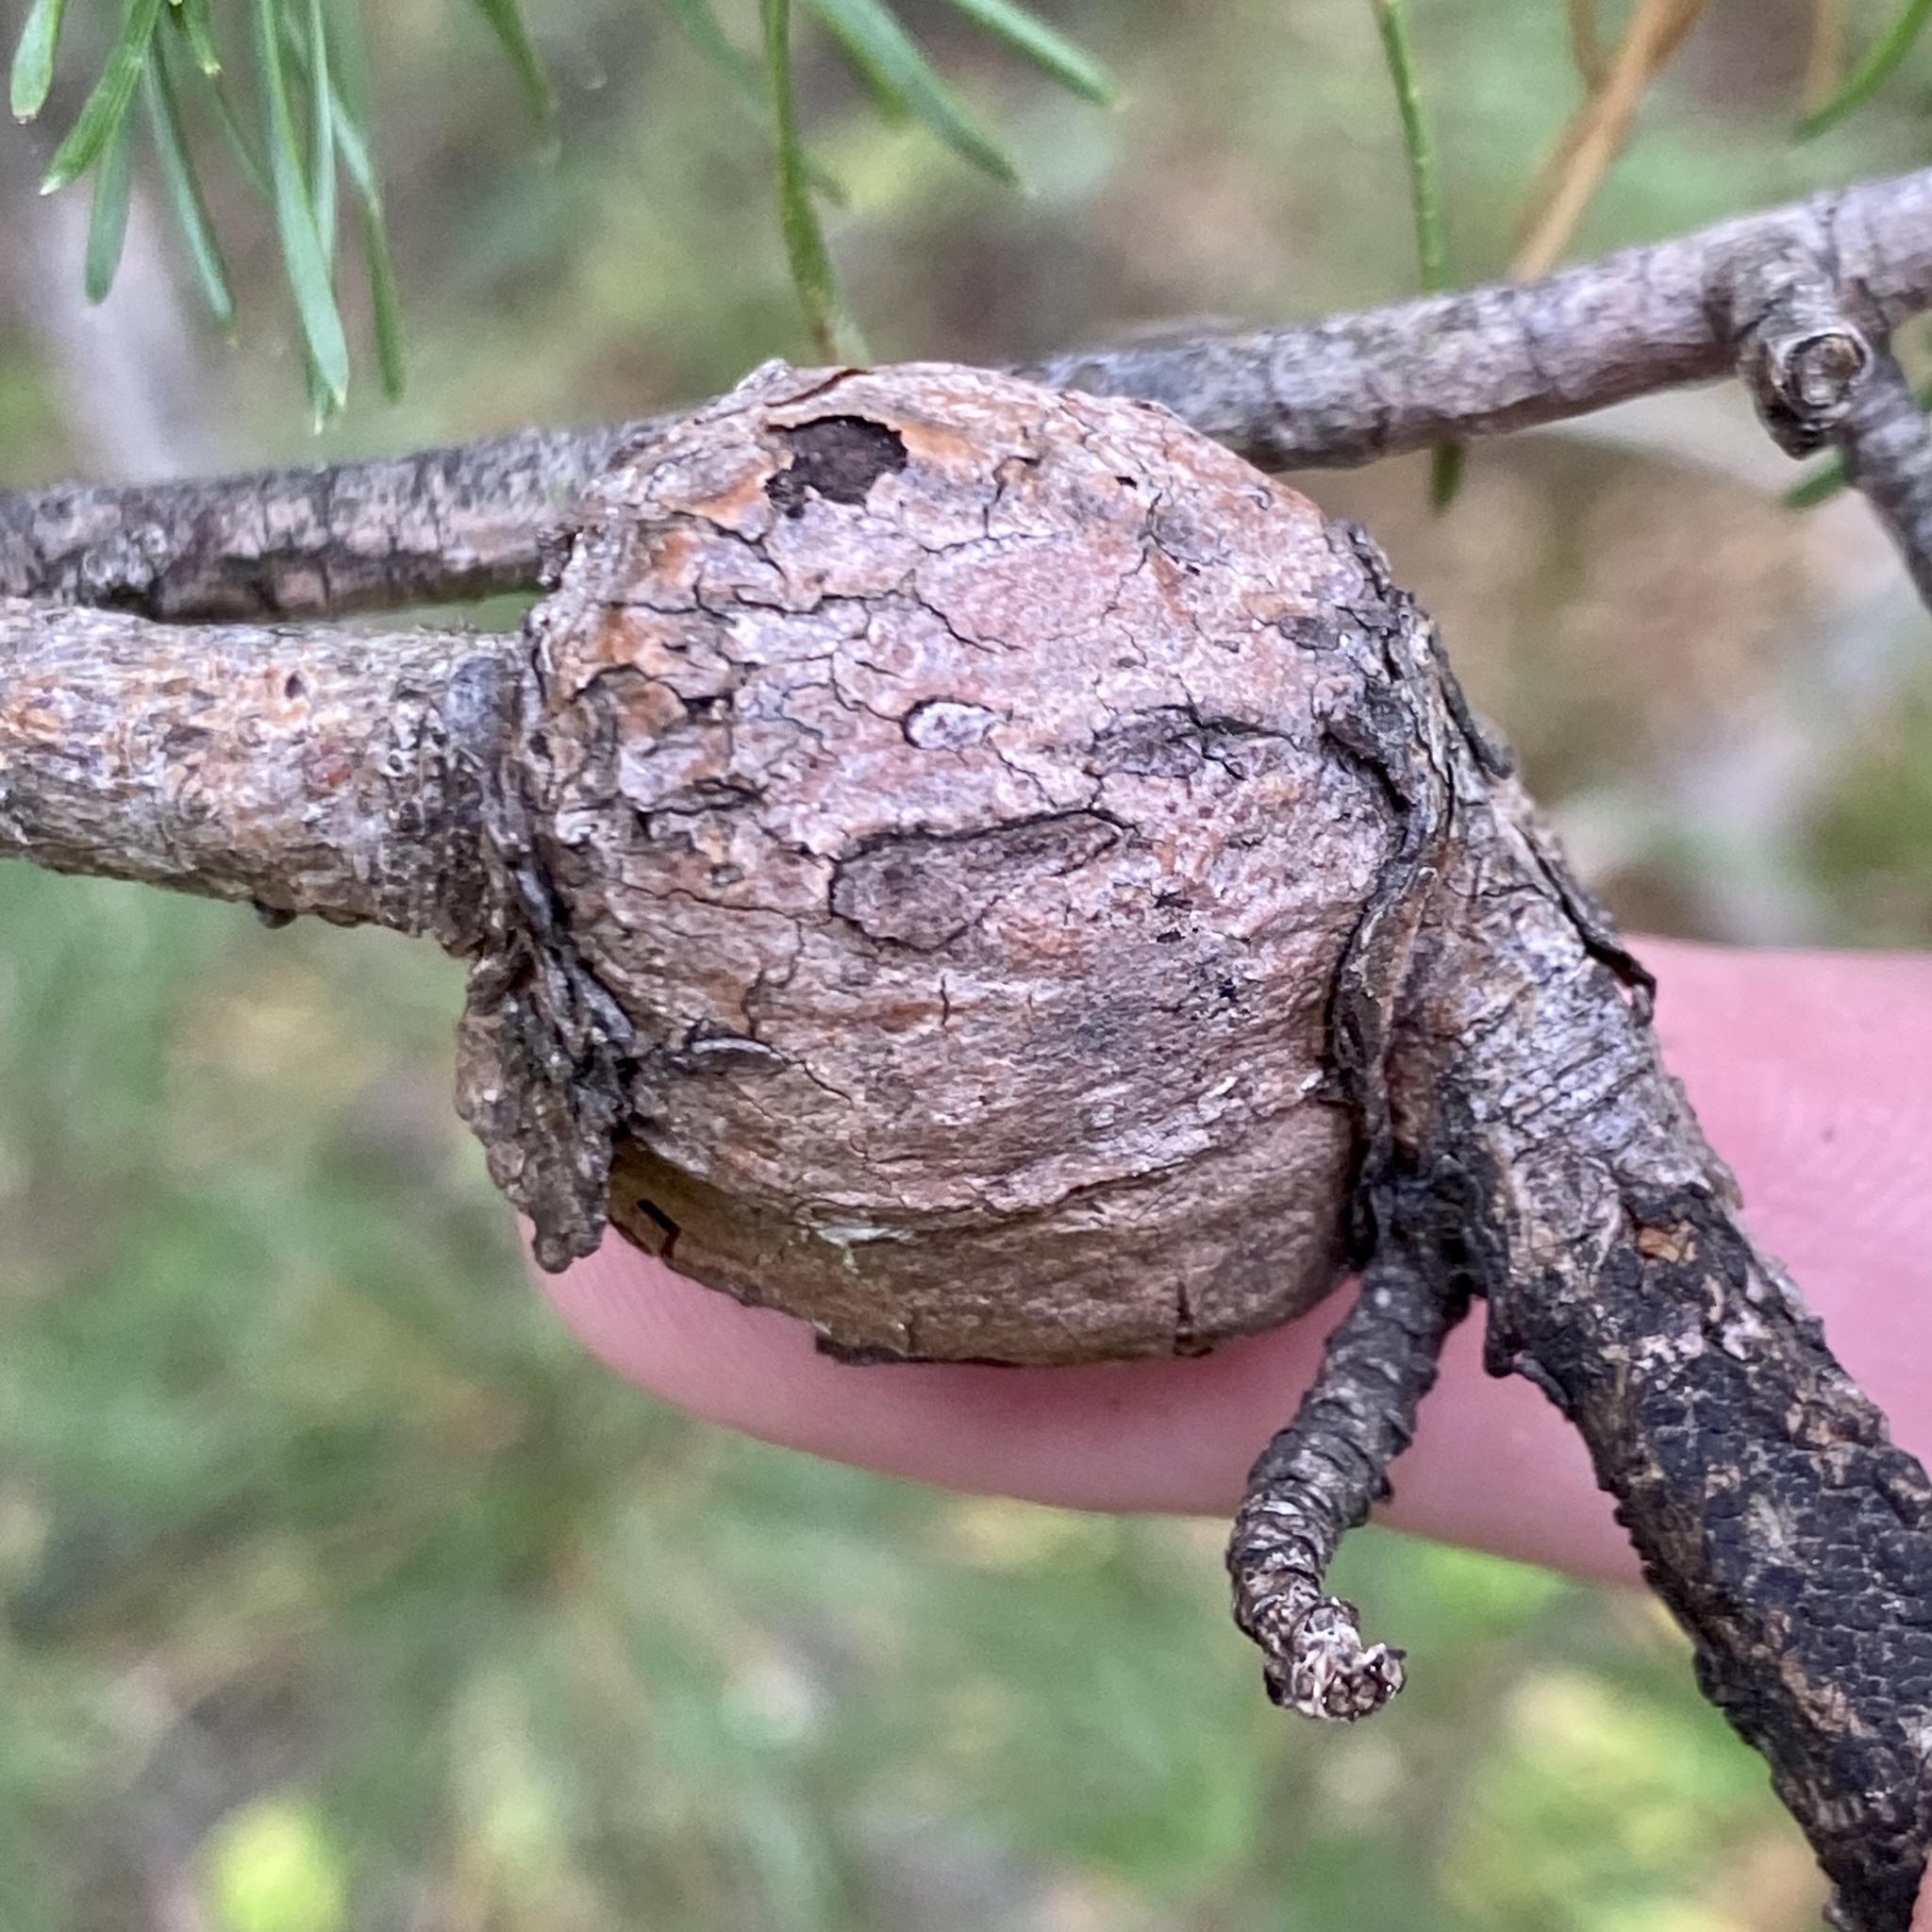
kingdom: Fungi
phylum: Basidiomycota
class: Pucciniomycetes
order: Pucciniales
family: Cronartiaceae
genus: Cronartium
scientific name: Cronartium quercuum
